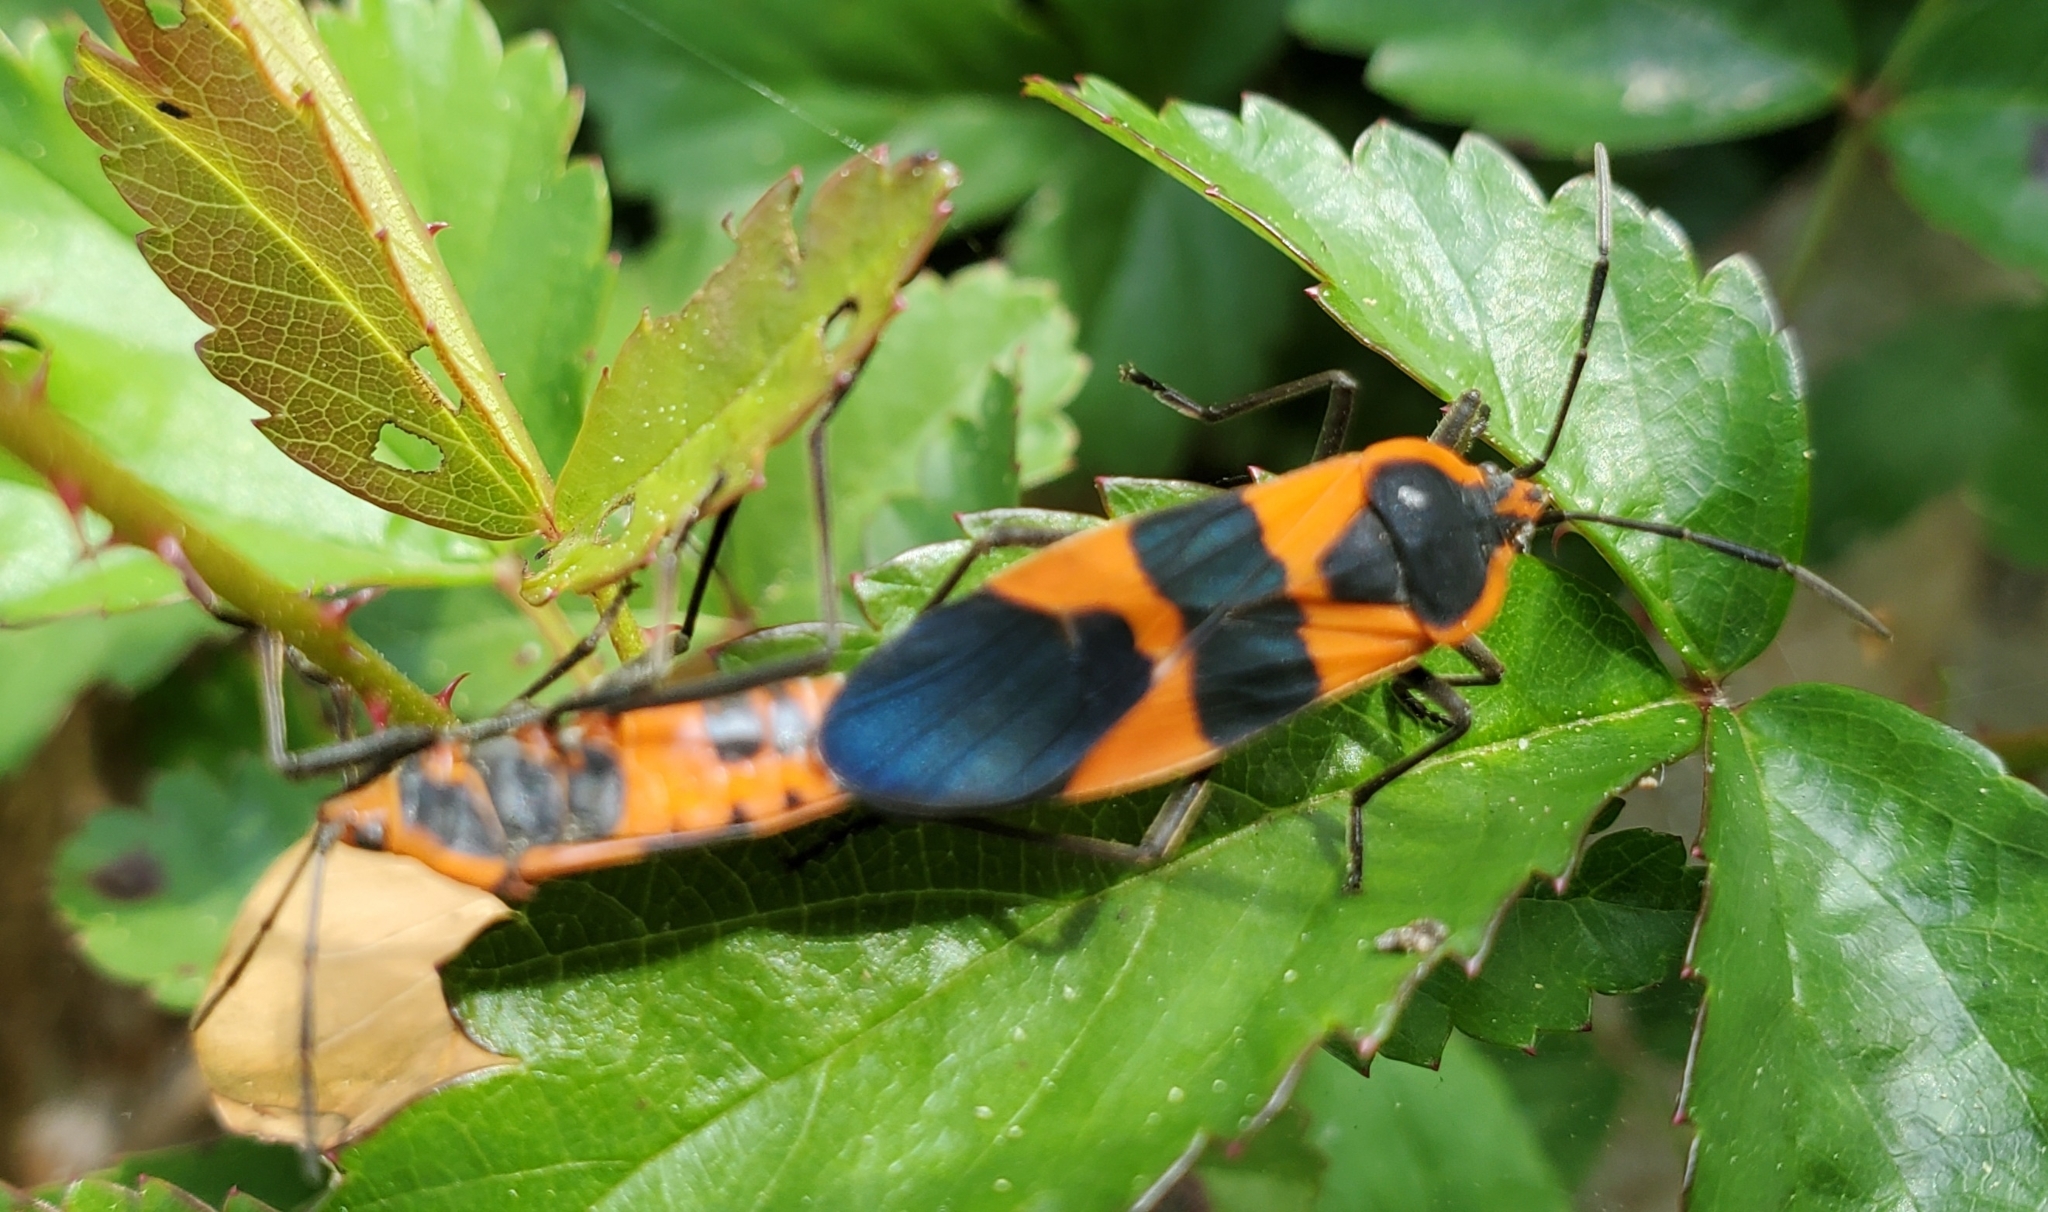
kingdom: Animalia
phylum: Arthropoda
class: Insecta
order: Hemiptera
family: Lygaeidae
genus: Oncopeltus
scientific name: Oncopeltus fasciatus
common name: Large milkweed bug
